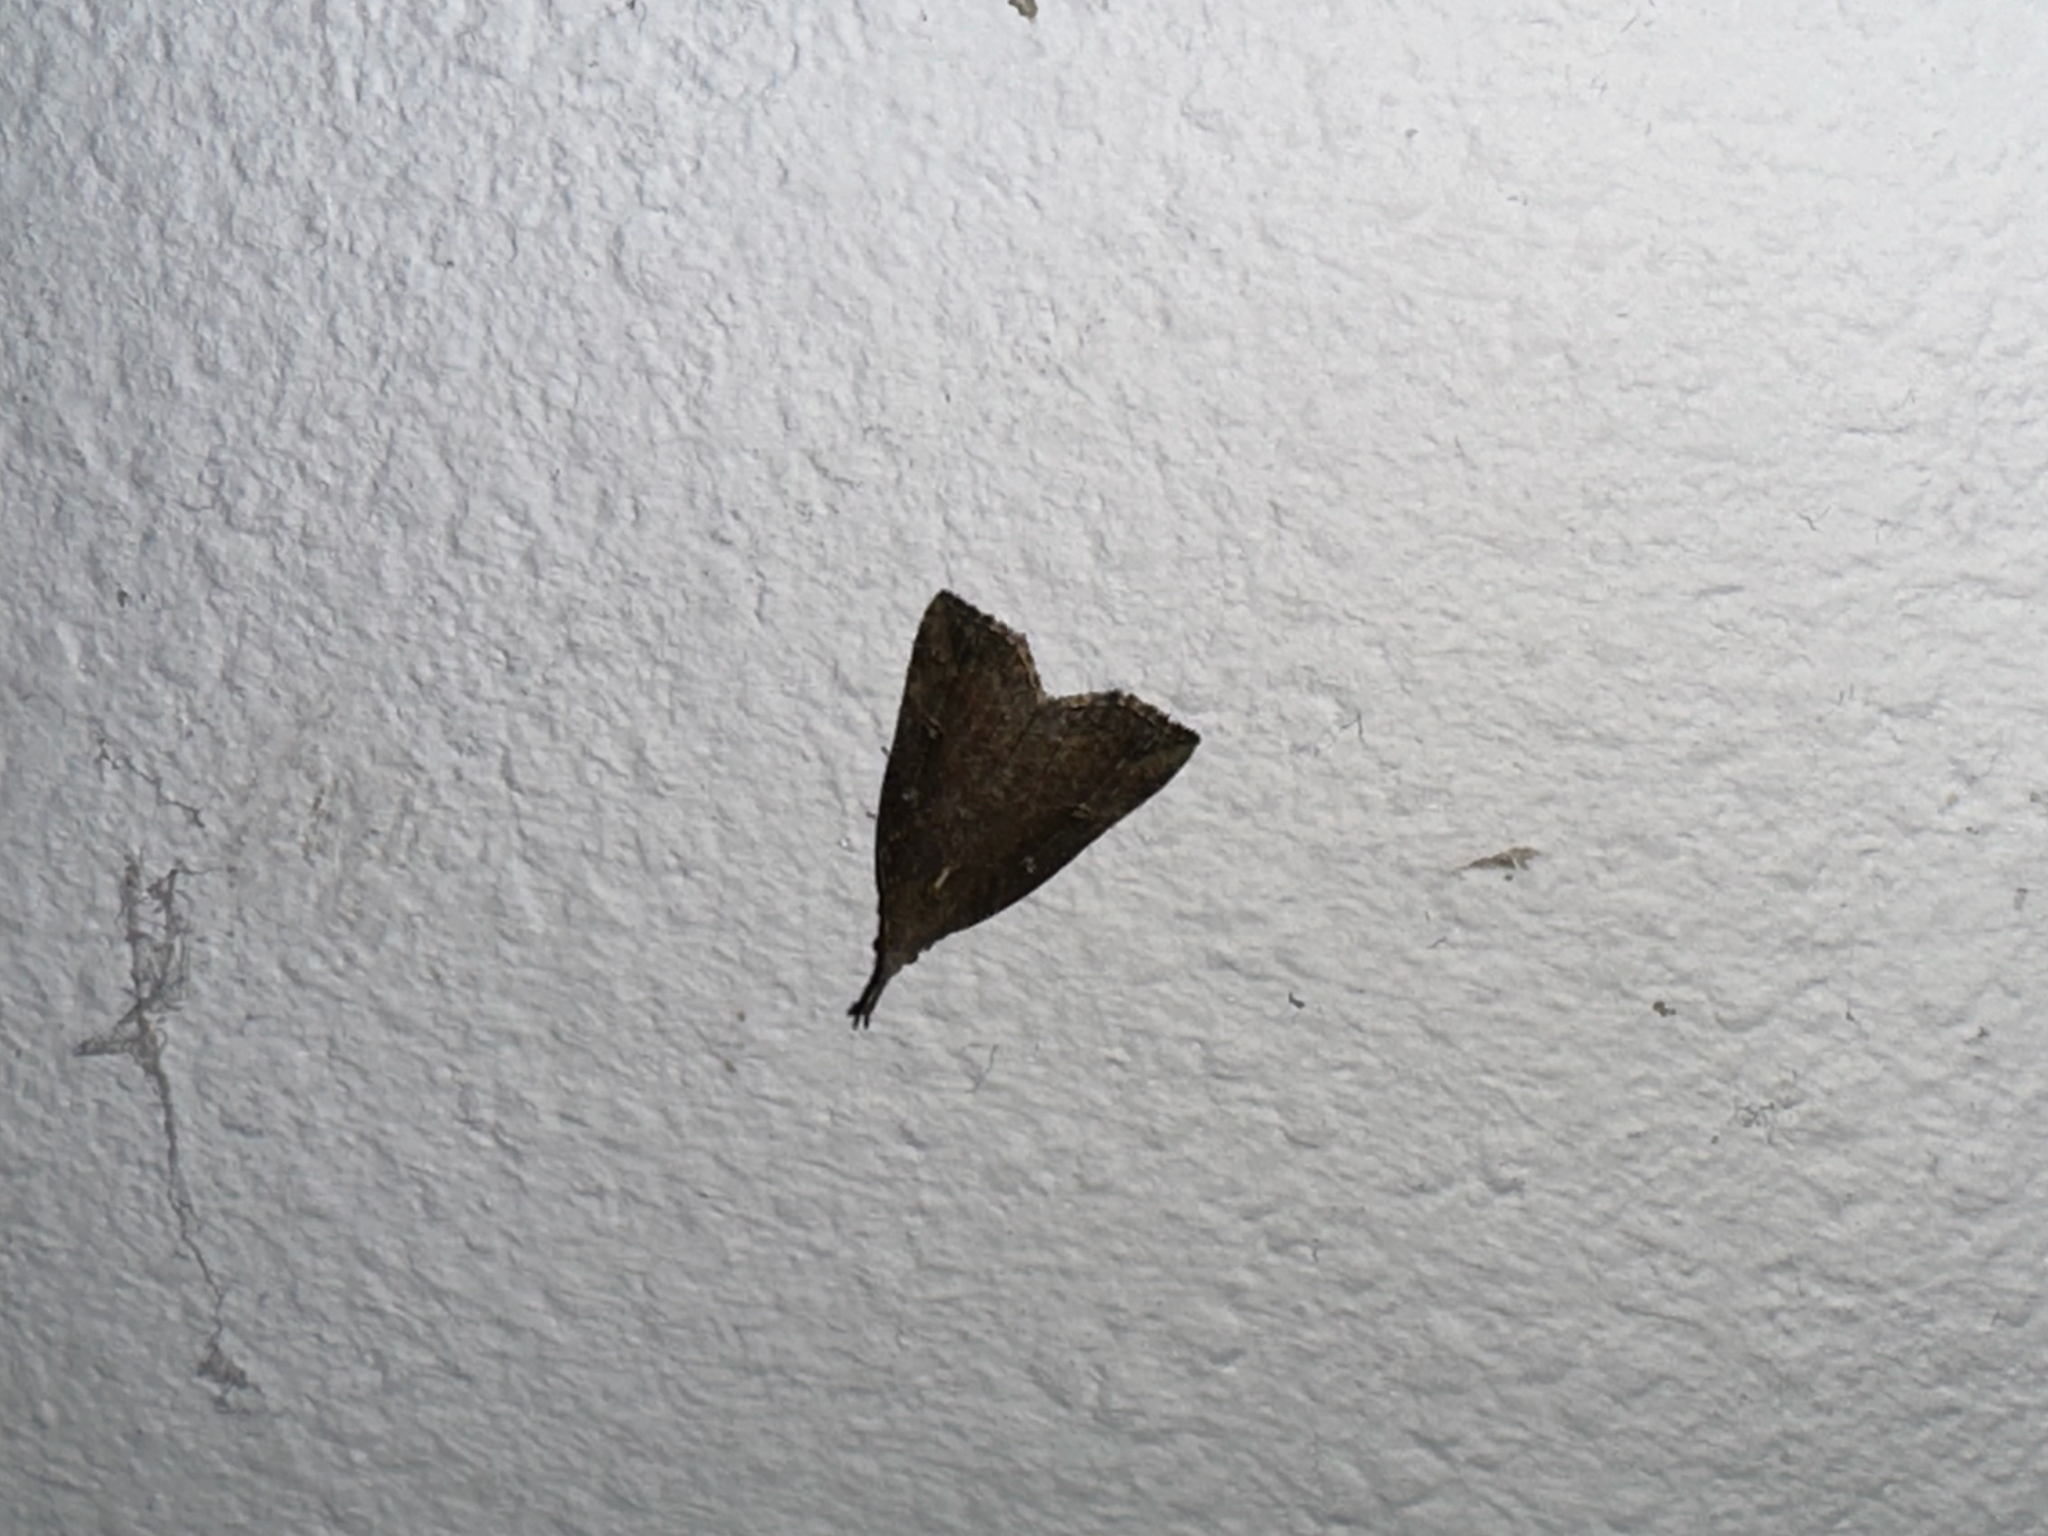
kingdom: Animalia
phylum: Arthropoda
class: Insecta
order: Lepidoptera
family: Erebidae
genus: Hypena
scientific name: Hypena rostralis
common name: Buttoned snout
